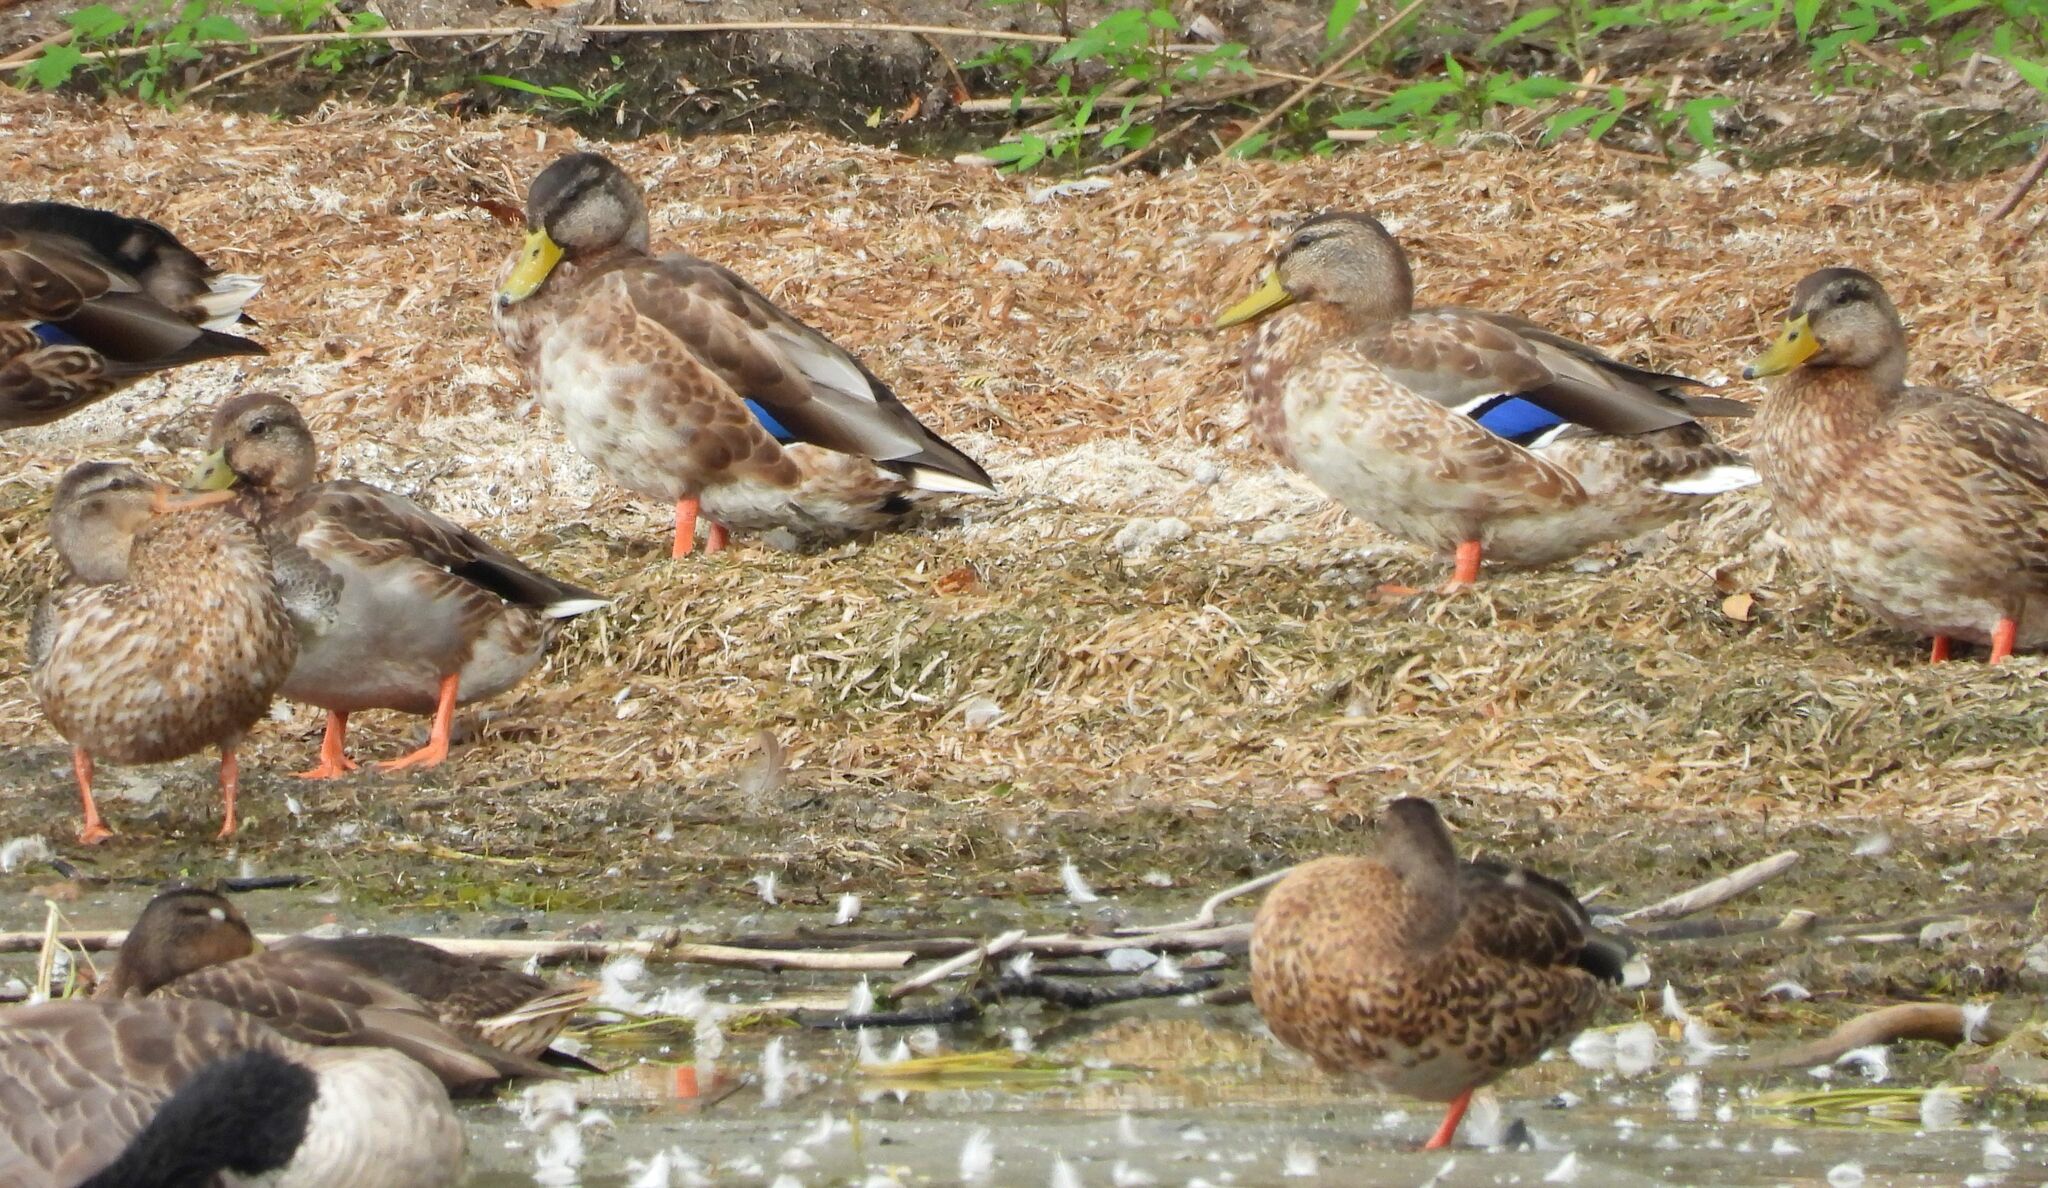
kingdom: Animalia
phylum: Chordata
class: Aves
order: Anseriformes
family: Anatidae
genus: Anas
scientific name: Anas platyrhynchos
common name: Mallard
